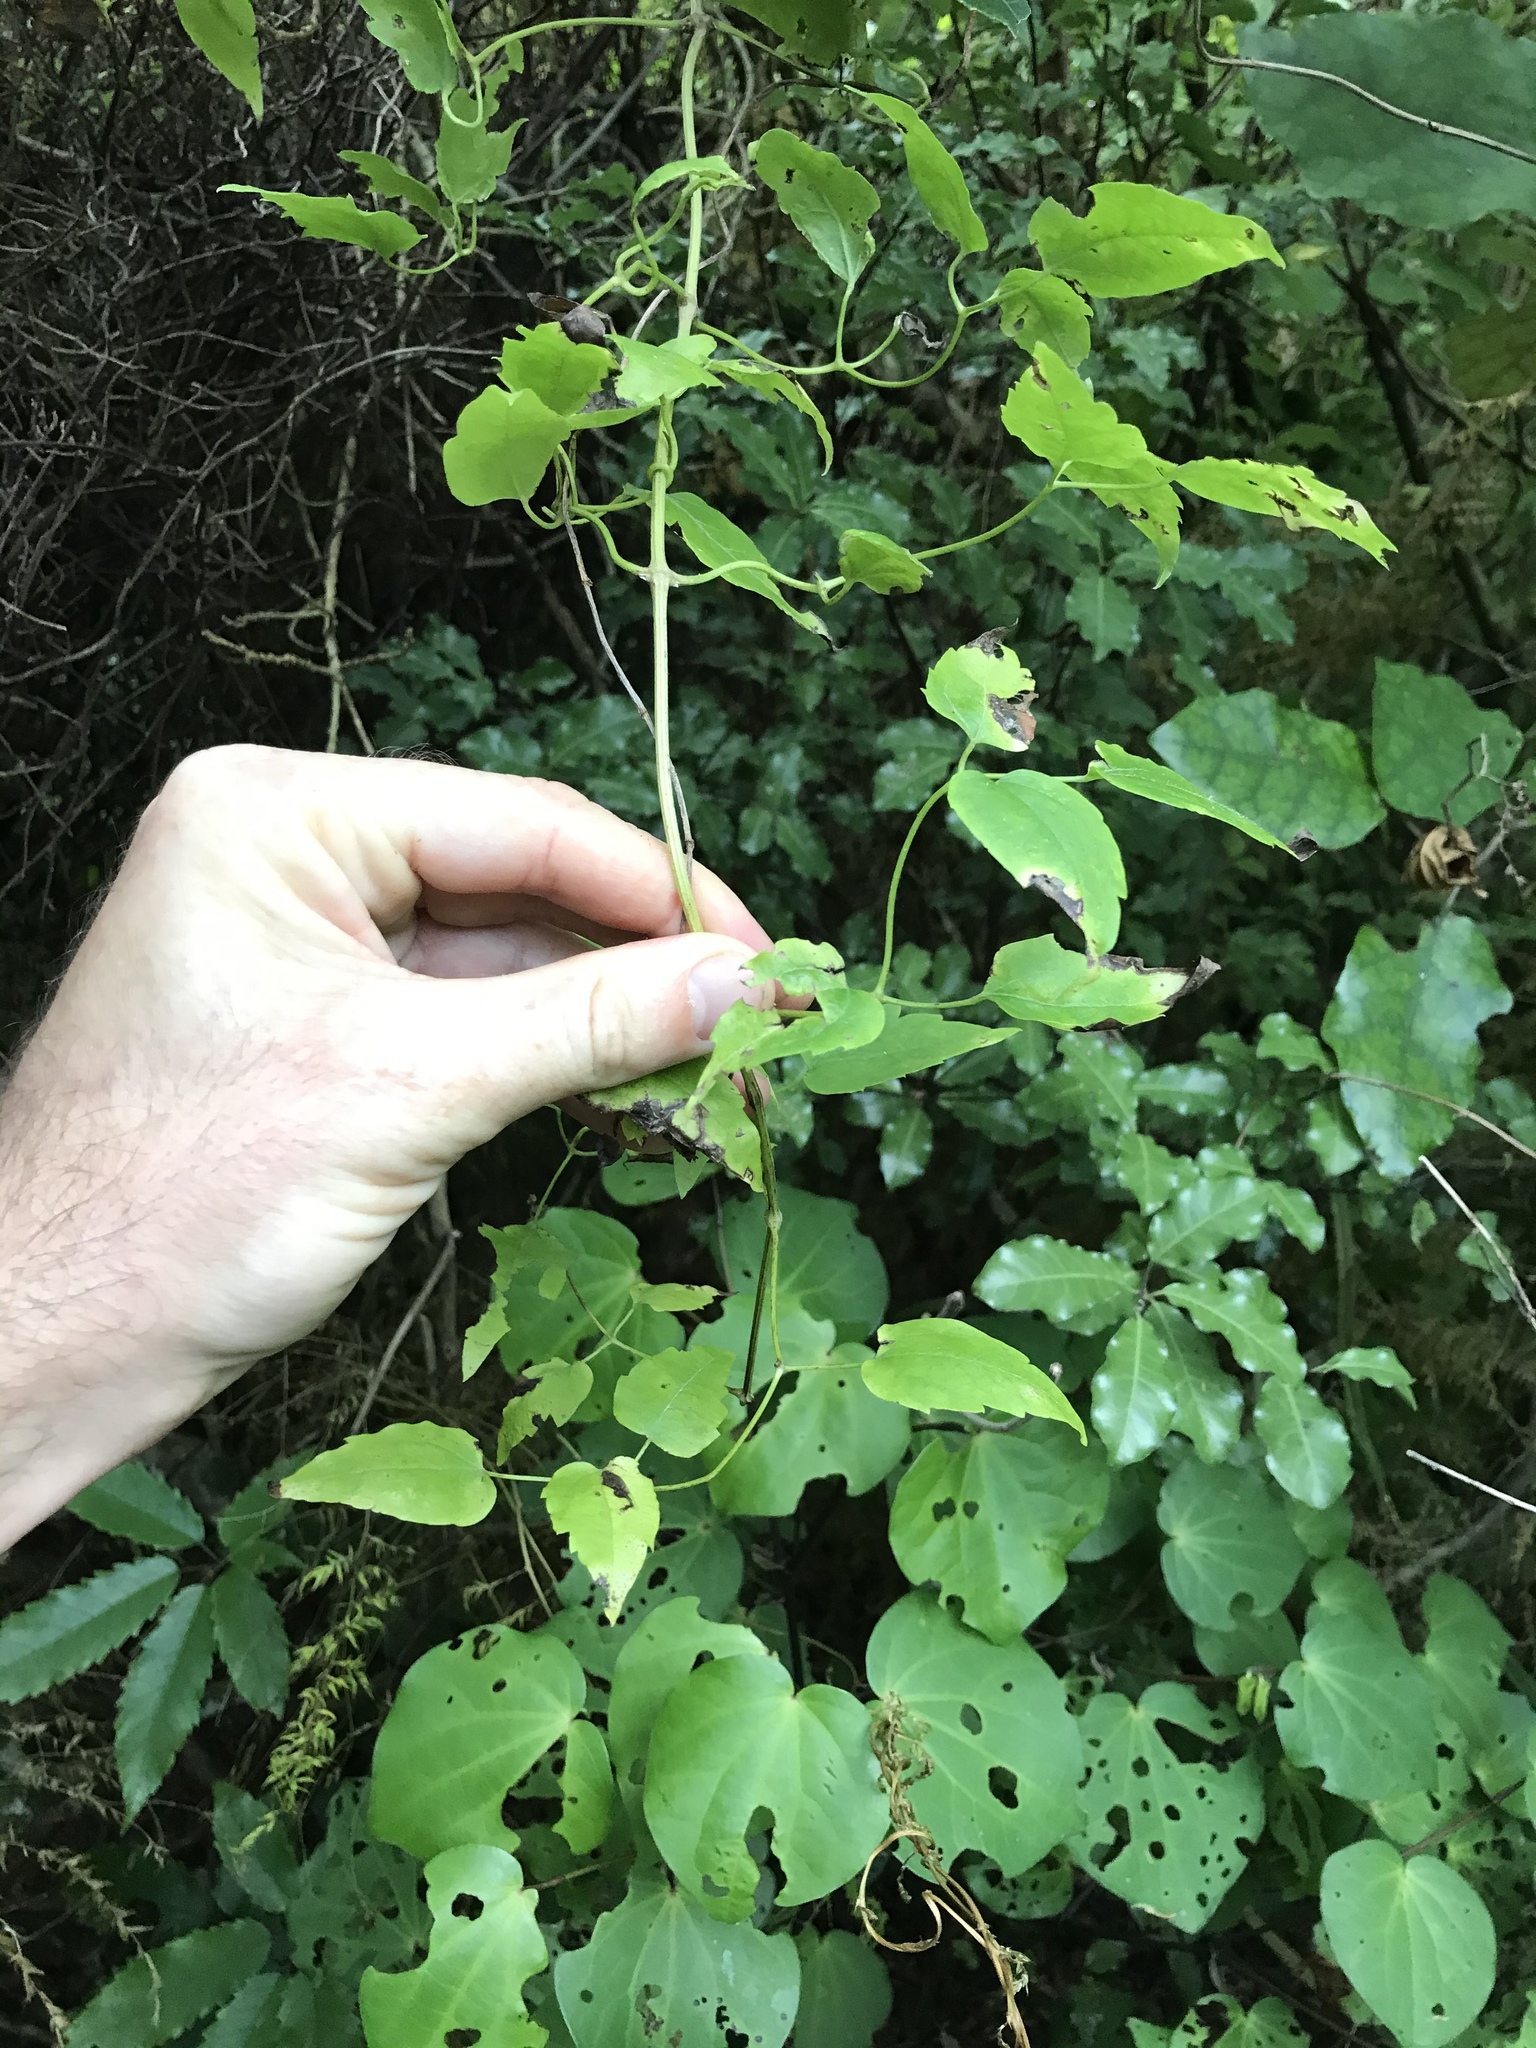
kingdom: Plantae
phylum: Tracheophyta
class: Magnoliopsida
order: Ranunculales
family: Ranunculaceae
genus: Clematis
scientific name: Clematis vitalba
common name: Evergreen clematis
